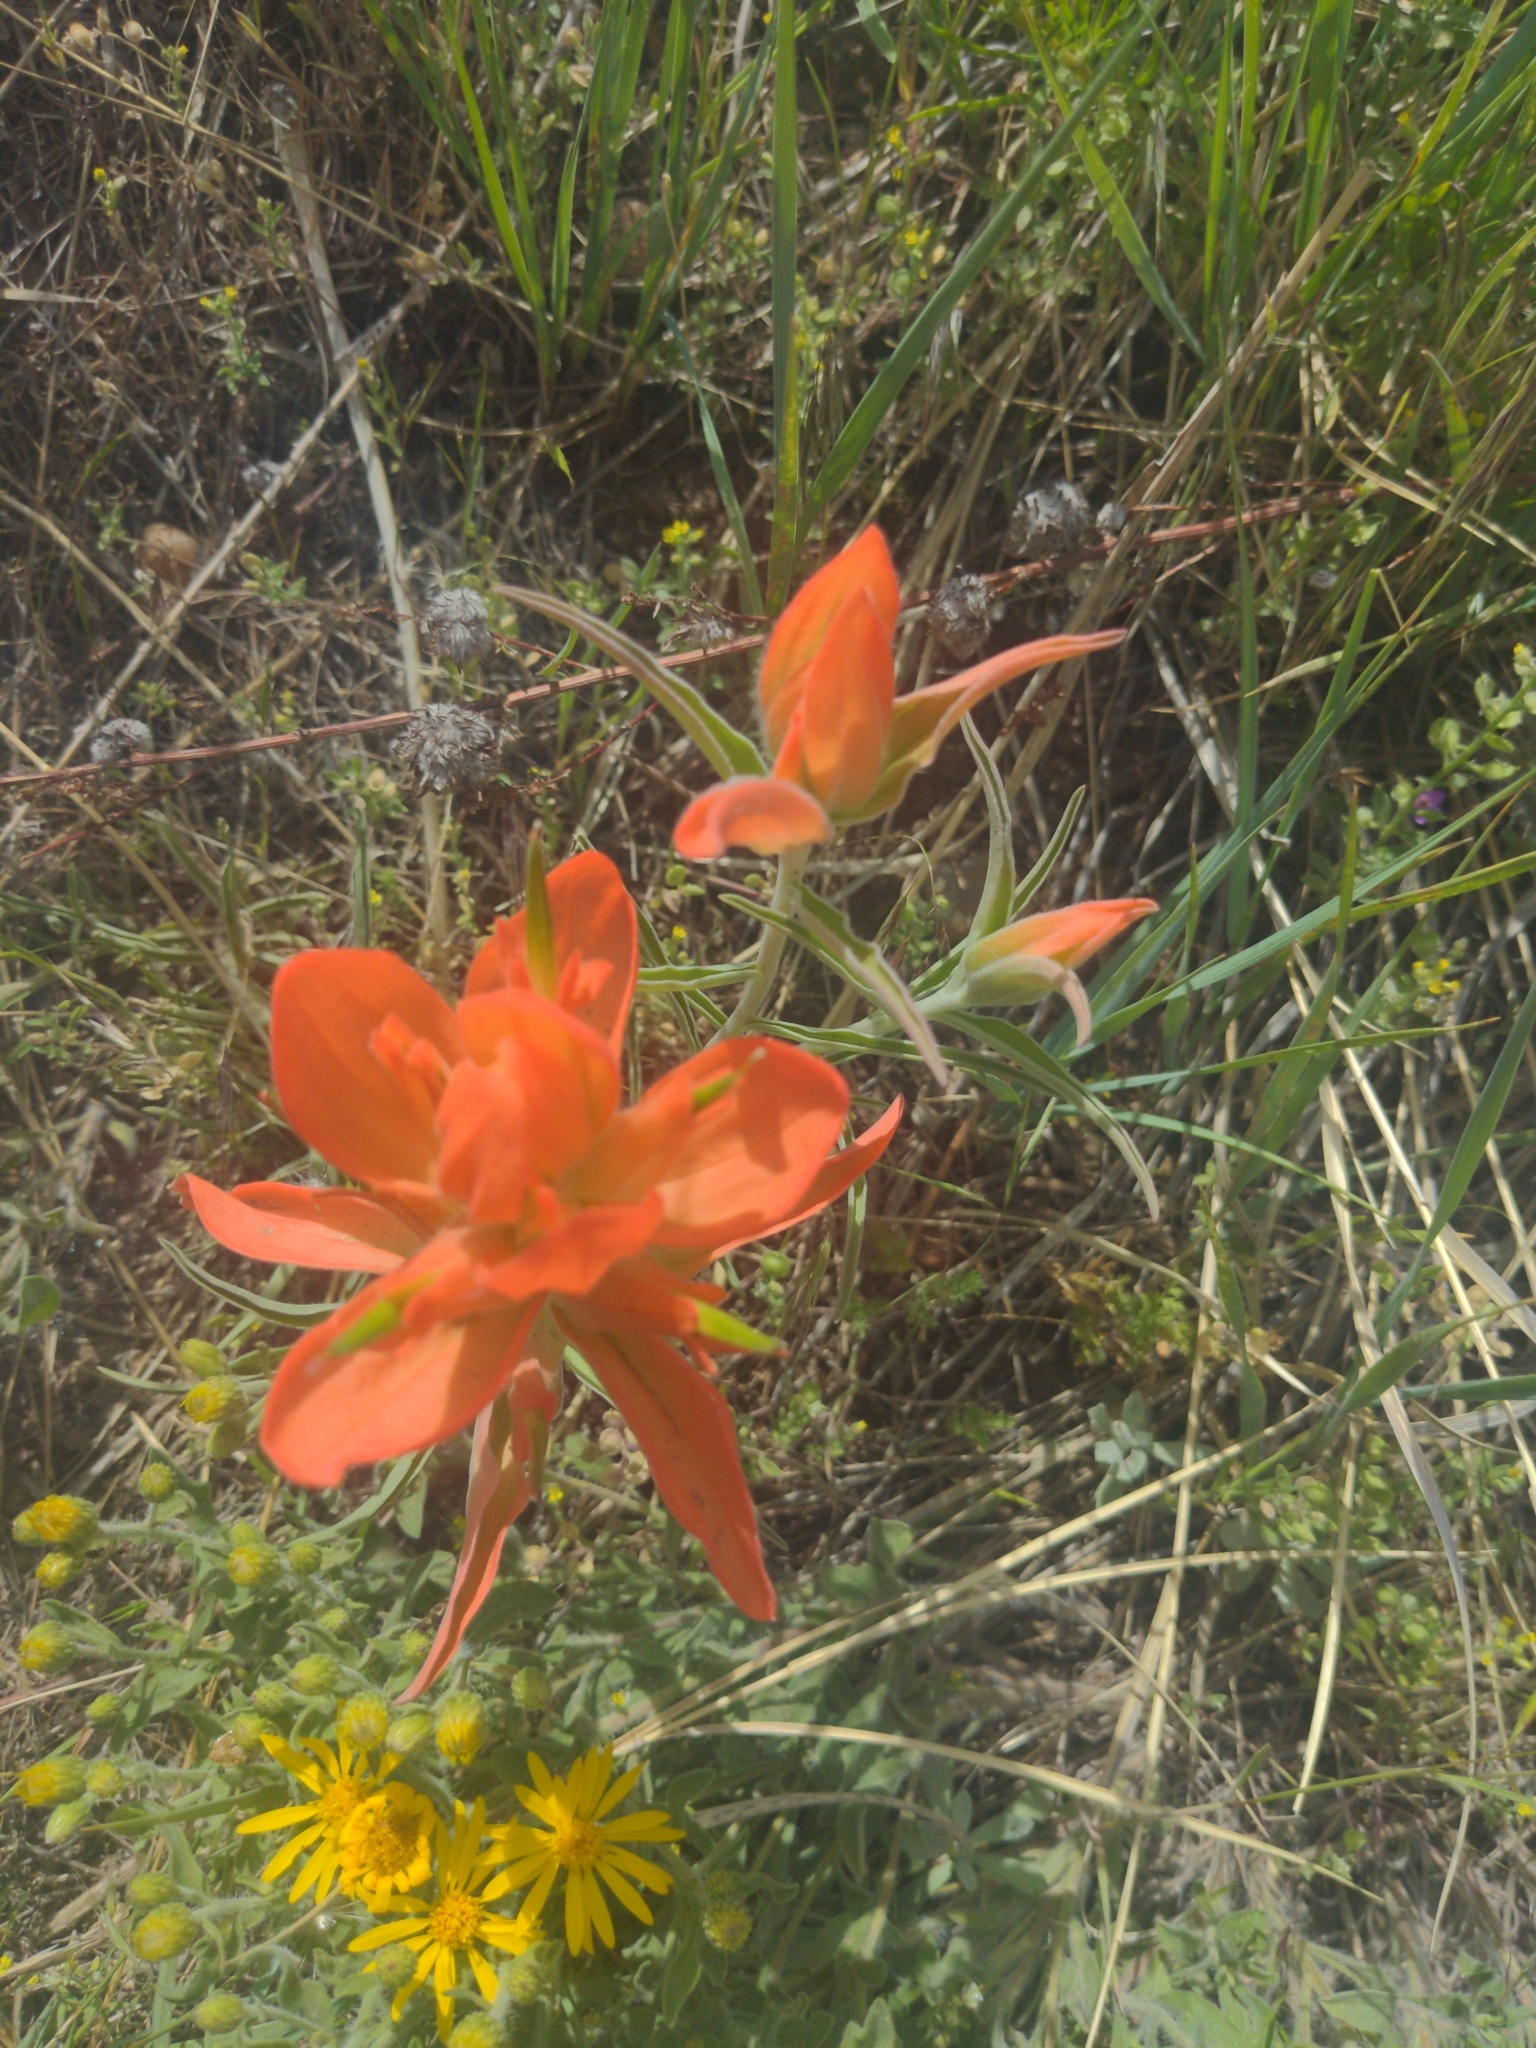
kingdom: Plantae
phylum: Tracheophyta
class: Magnoliopsida
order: Lamiales
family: Orobanchaceae
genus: Castilleja
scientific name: Castilleja integra
